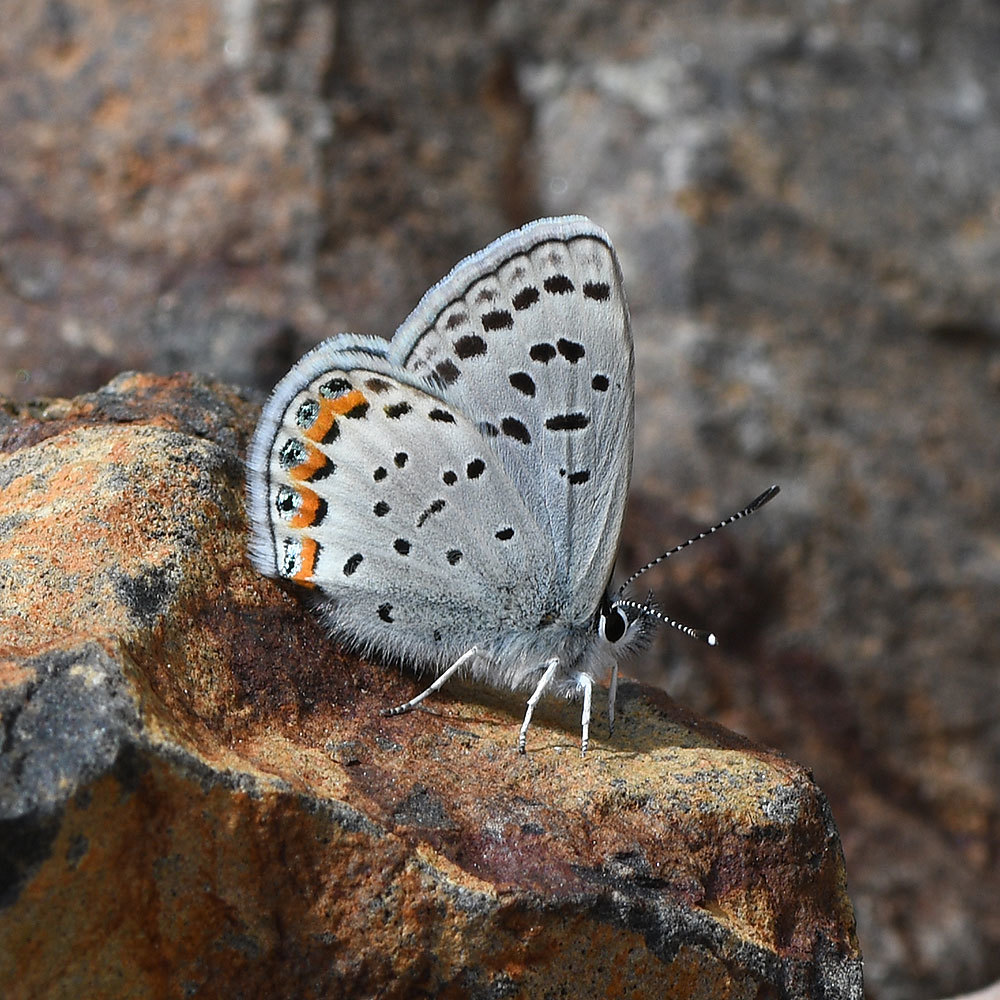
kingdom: Animalia
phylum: Arthropoda
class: Insecta
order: Lepidoptera
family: Lycaenidae
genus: Icaricia
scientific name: Icaricia lupini
